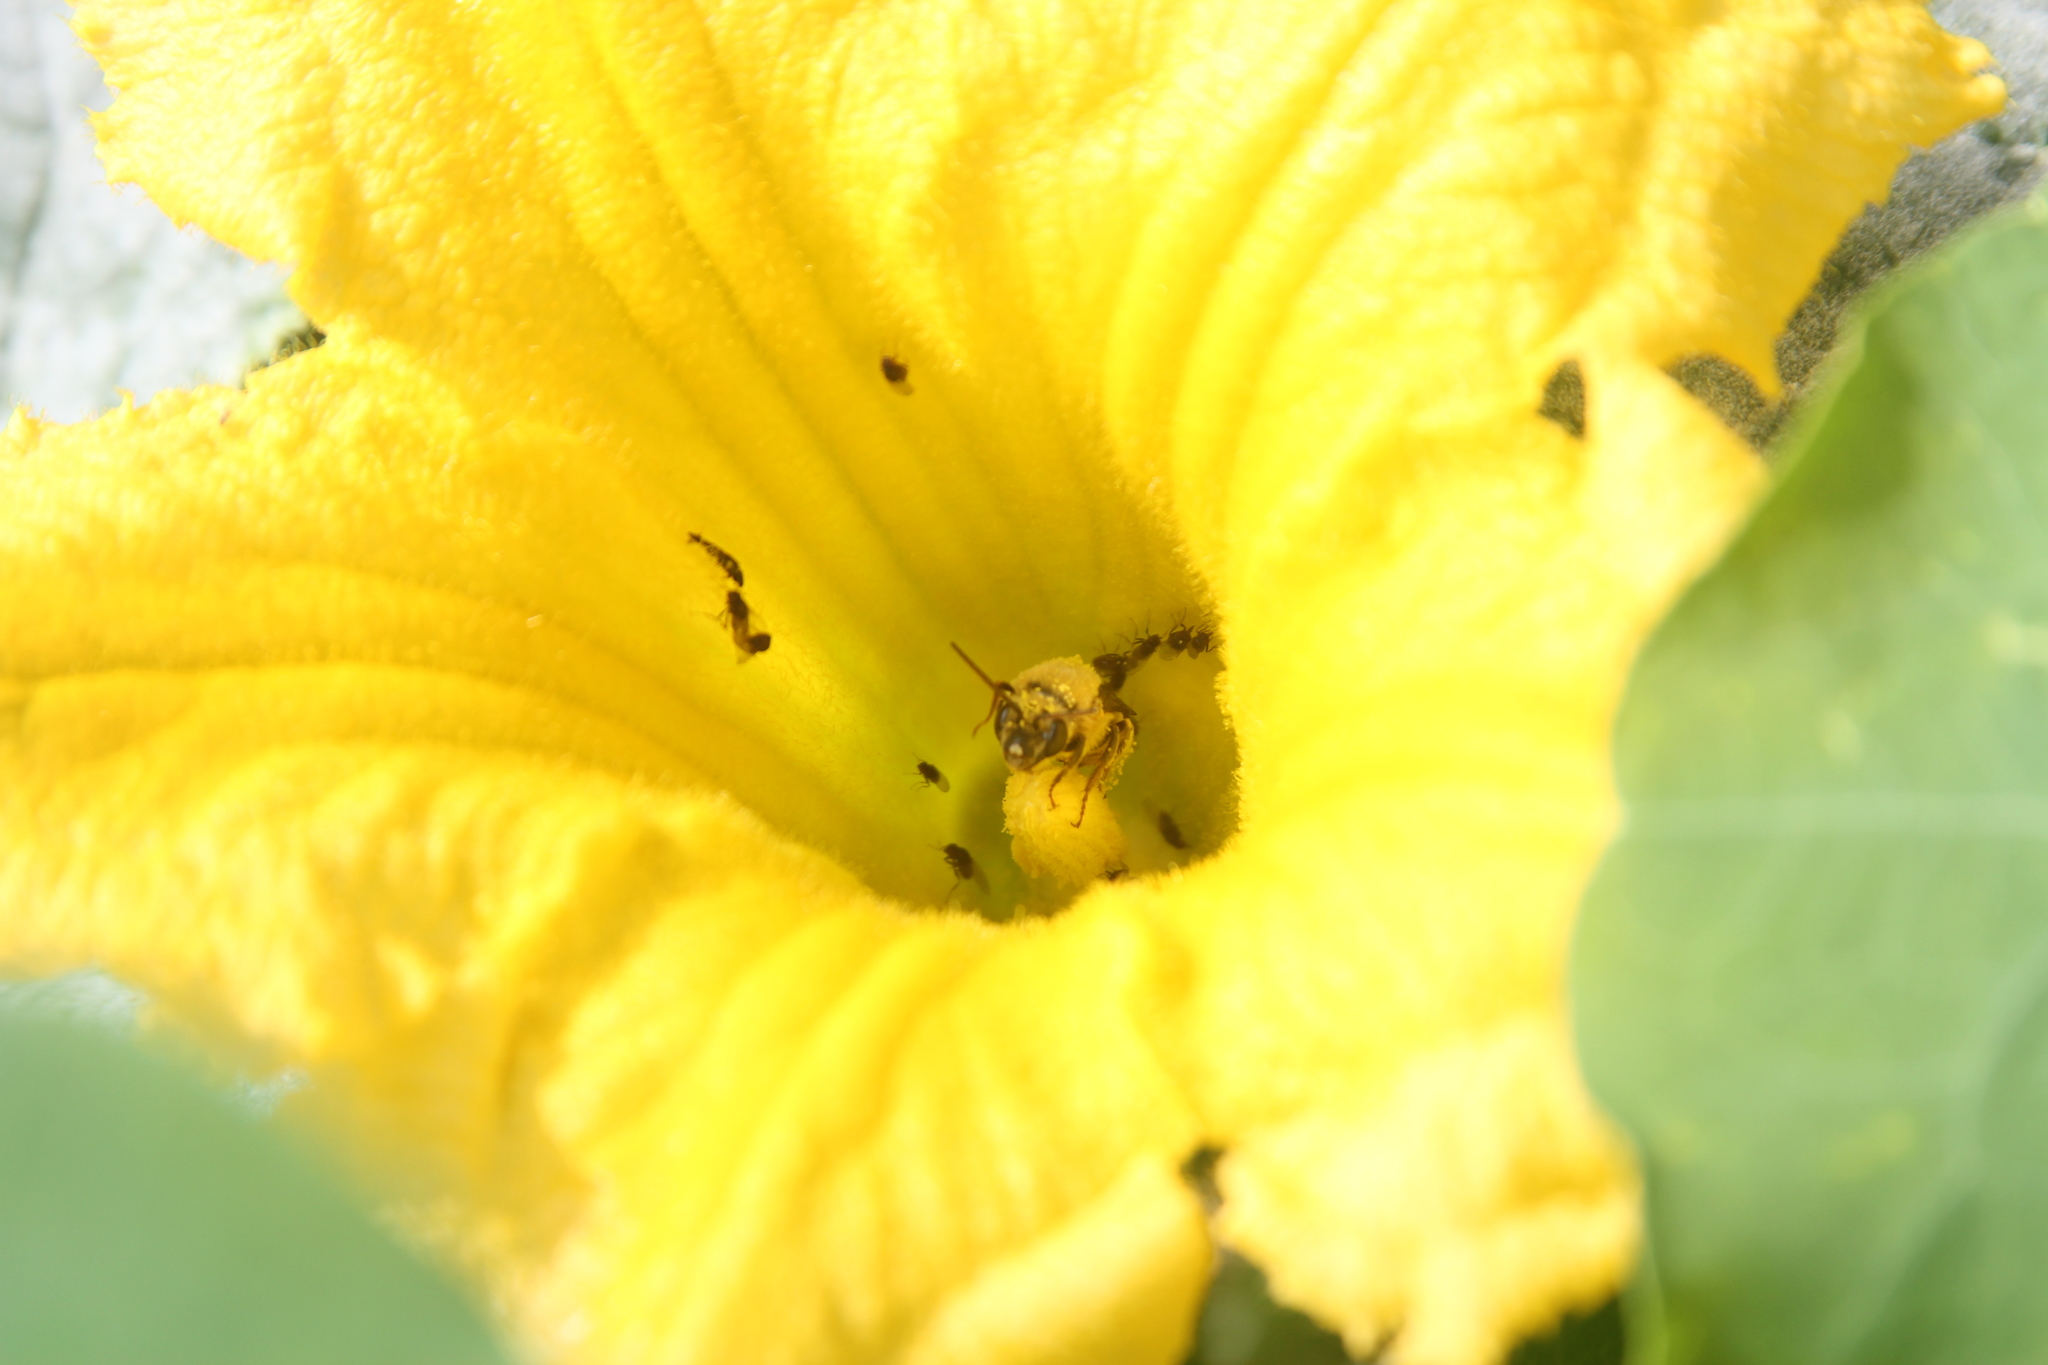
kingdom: Animalia
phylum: Arthropoda
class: Insecta
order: Hymenoptera
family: Apidae
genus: Peponapis
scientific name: Peponapis pruinosa
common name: Pruinose squash bee
